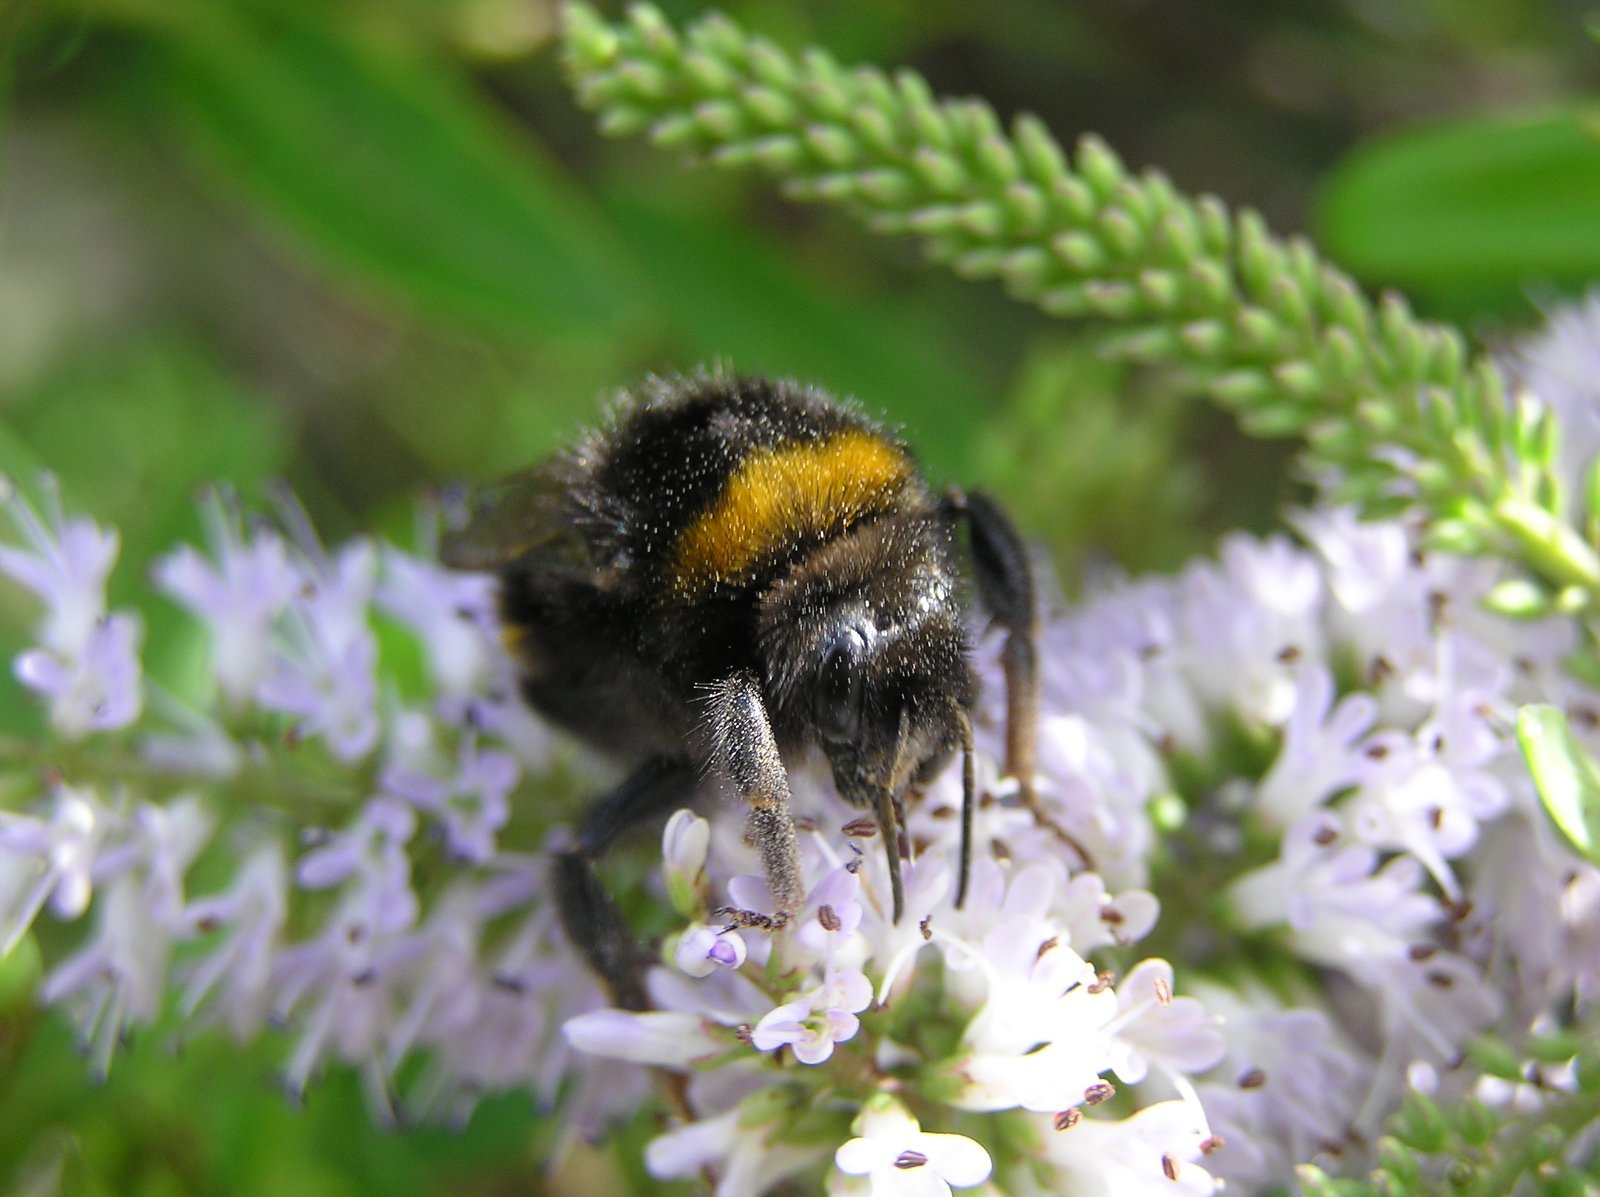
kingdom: Animalia
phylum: Arthropoda
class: Insecta
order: Hymenoptera
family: Apidae
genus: Bombus
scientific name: Bombus terrestris
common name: Buff-tailed bumblebee
